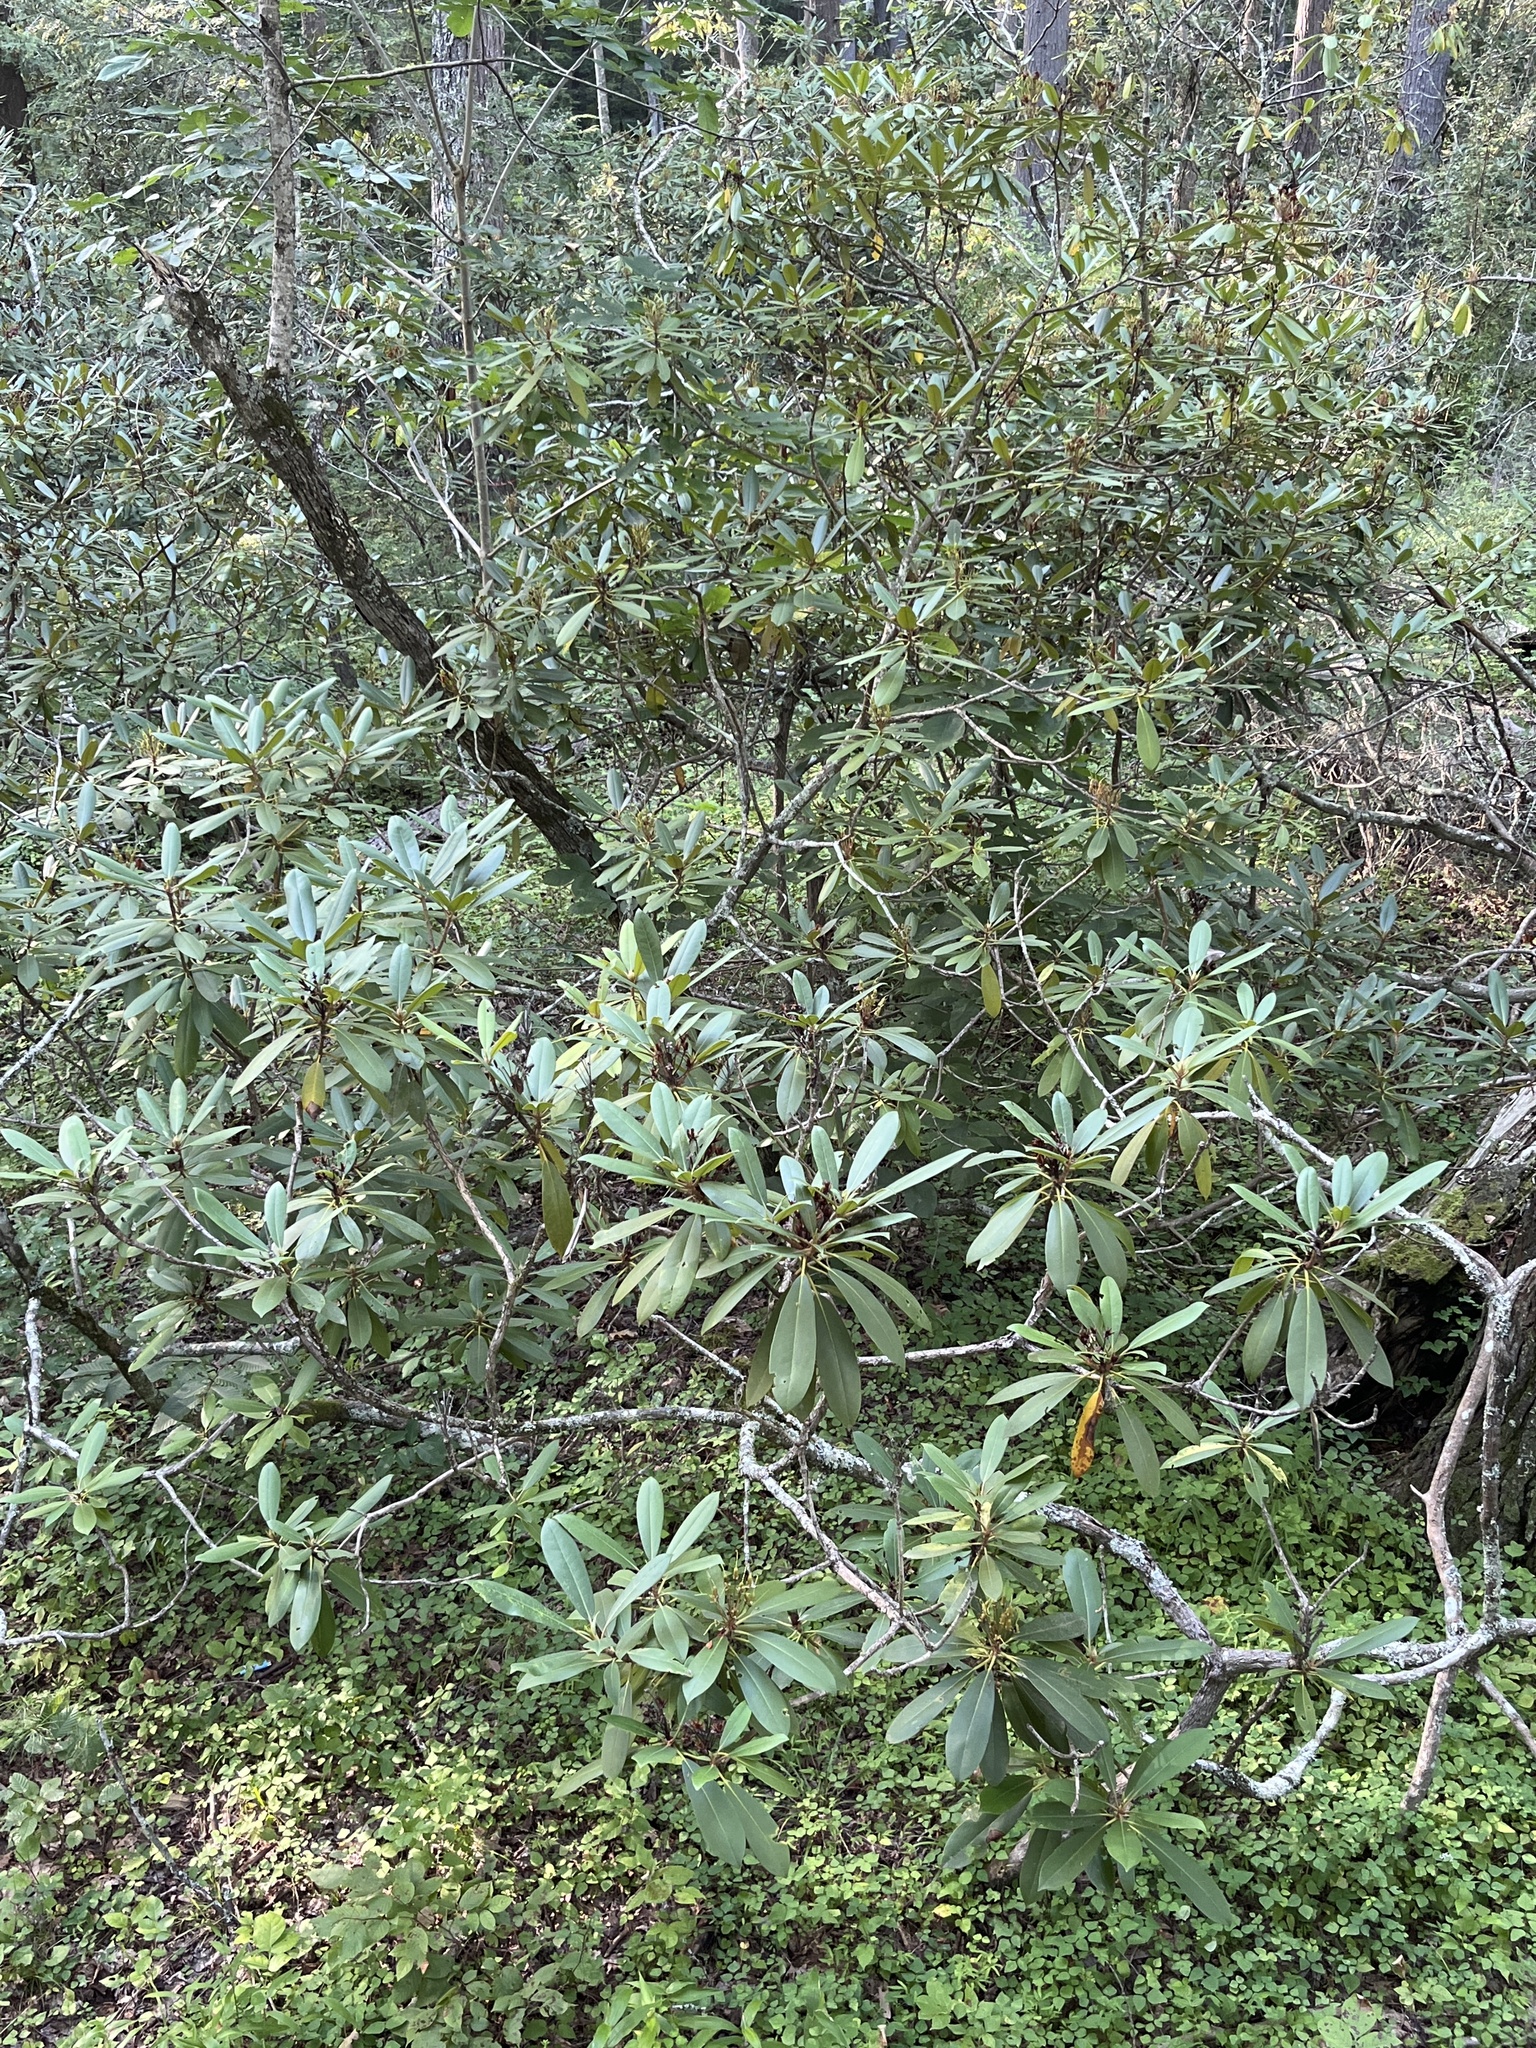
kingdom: Plantae
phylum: Tracheophyta
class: Magnoliopsida
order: Ericales
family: Ericaceae
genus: Rhododendron
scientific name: Rhododendron maximum
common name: Great rhododendron
